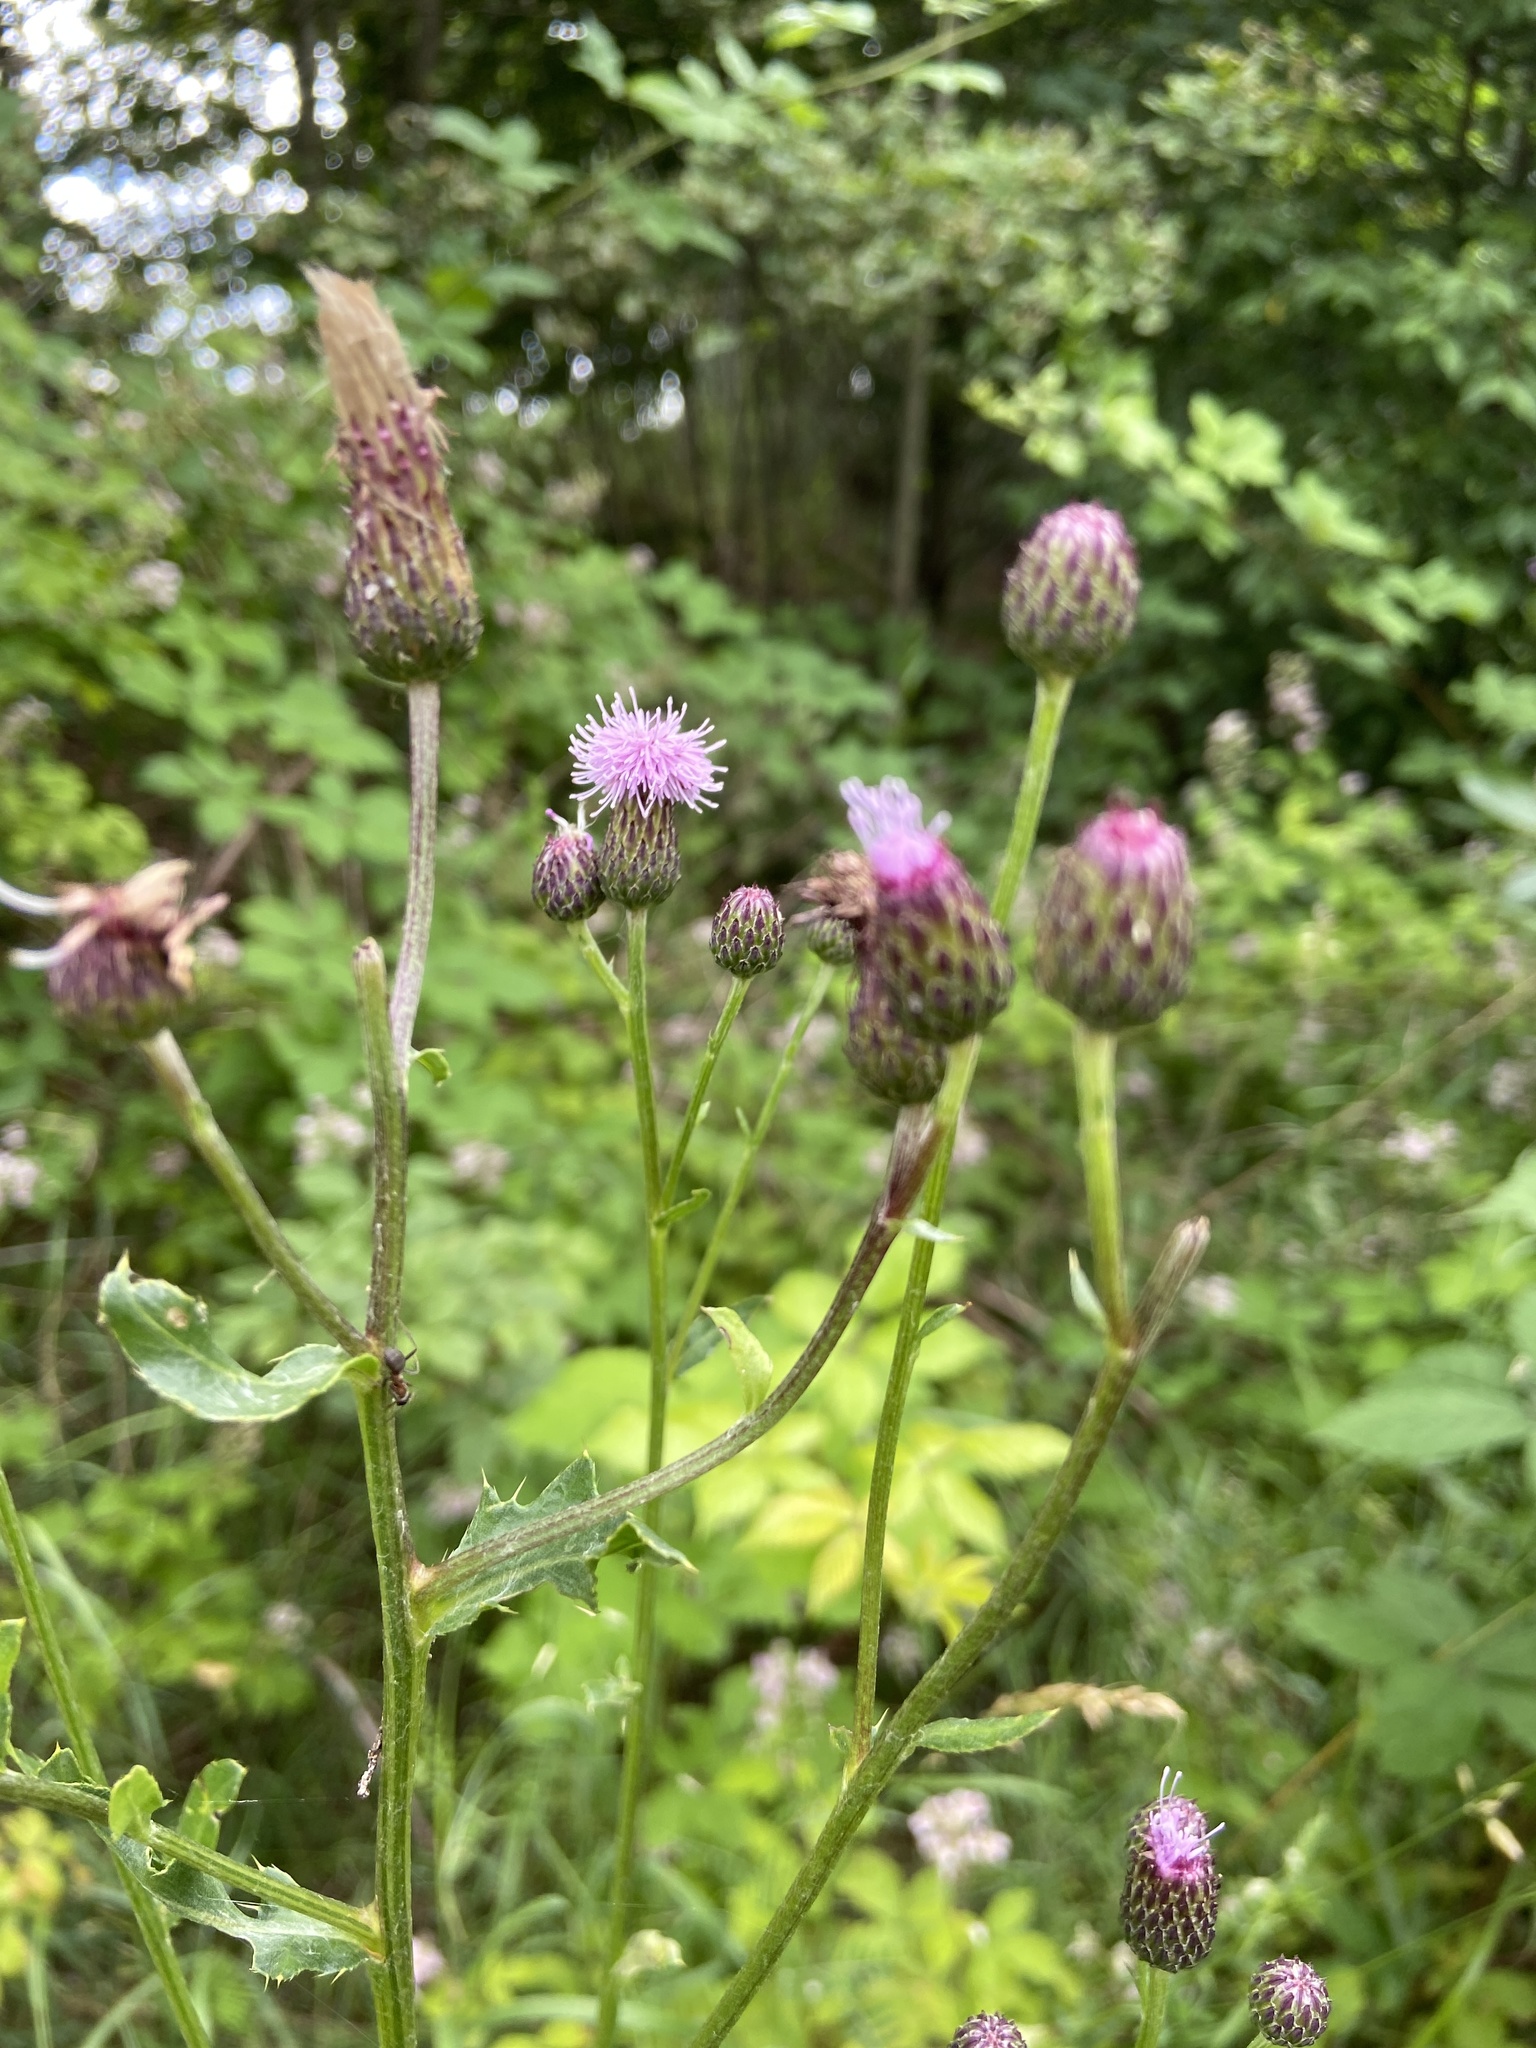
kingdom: Plantae
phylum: Tracheophyta
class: Magnoliopsida
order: Asterales
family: Asteraceae
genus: Cirsium
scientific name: Cirsium arvense
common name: Creeping thistle
